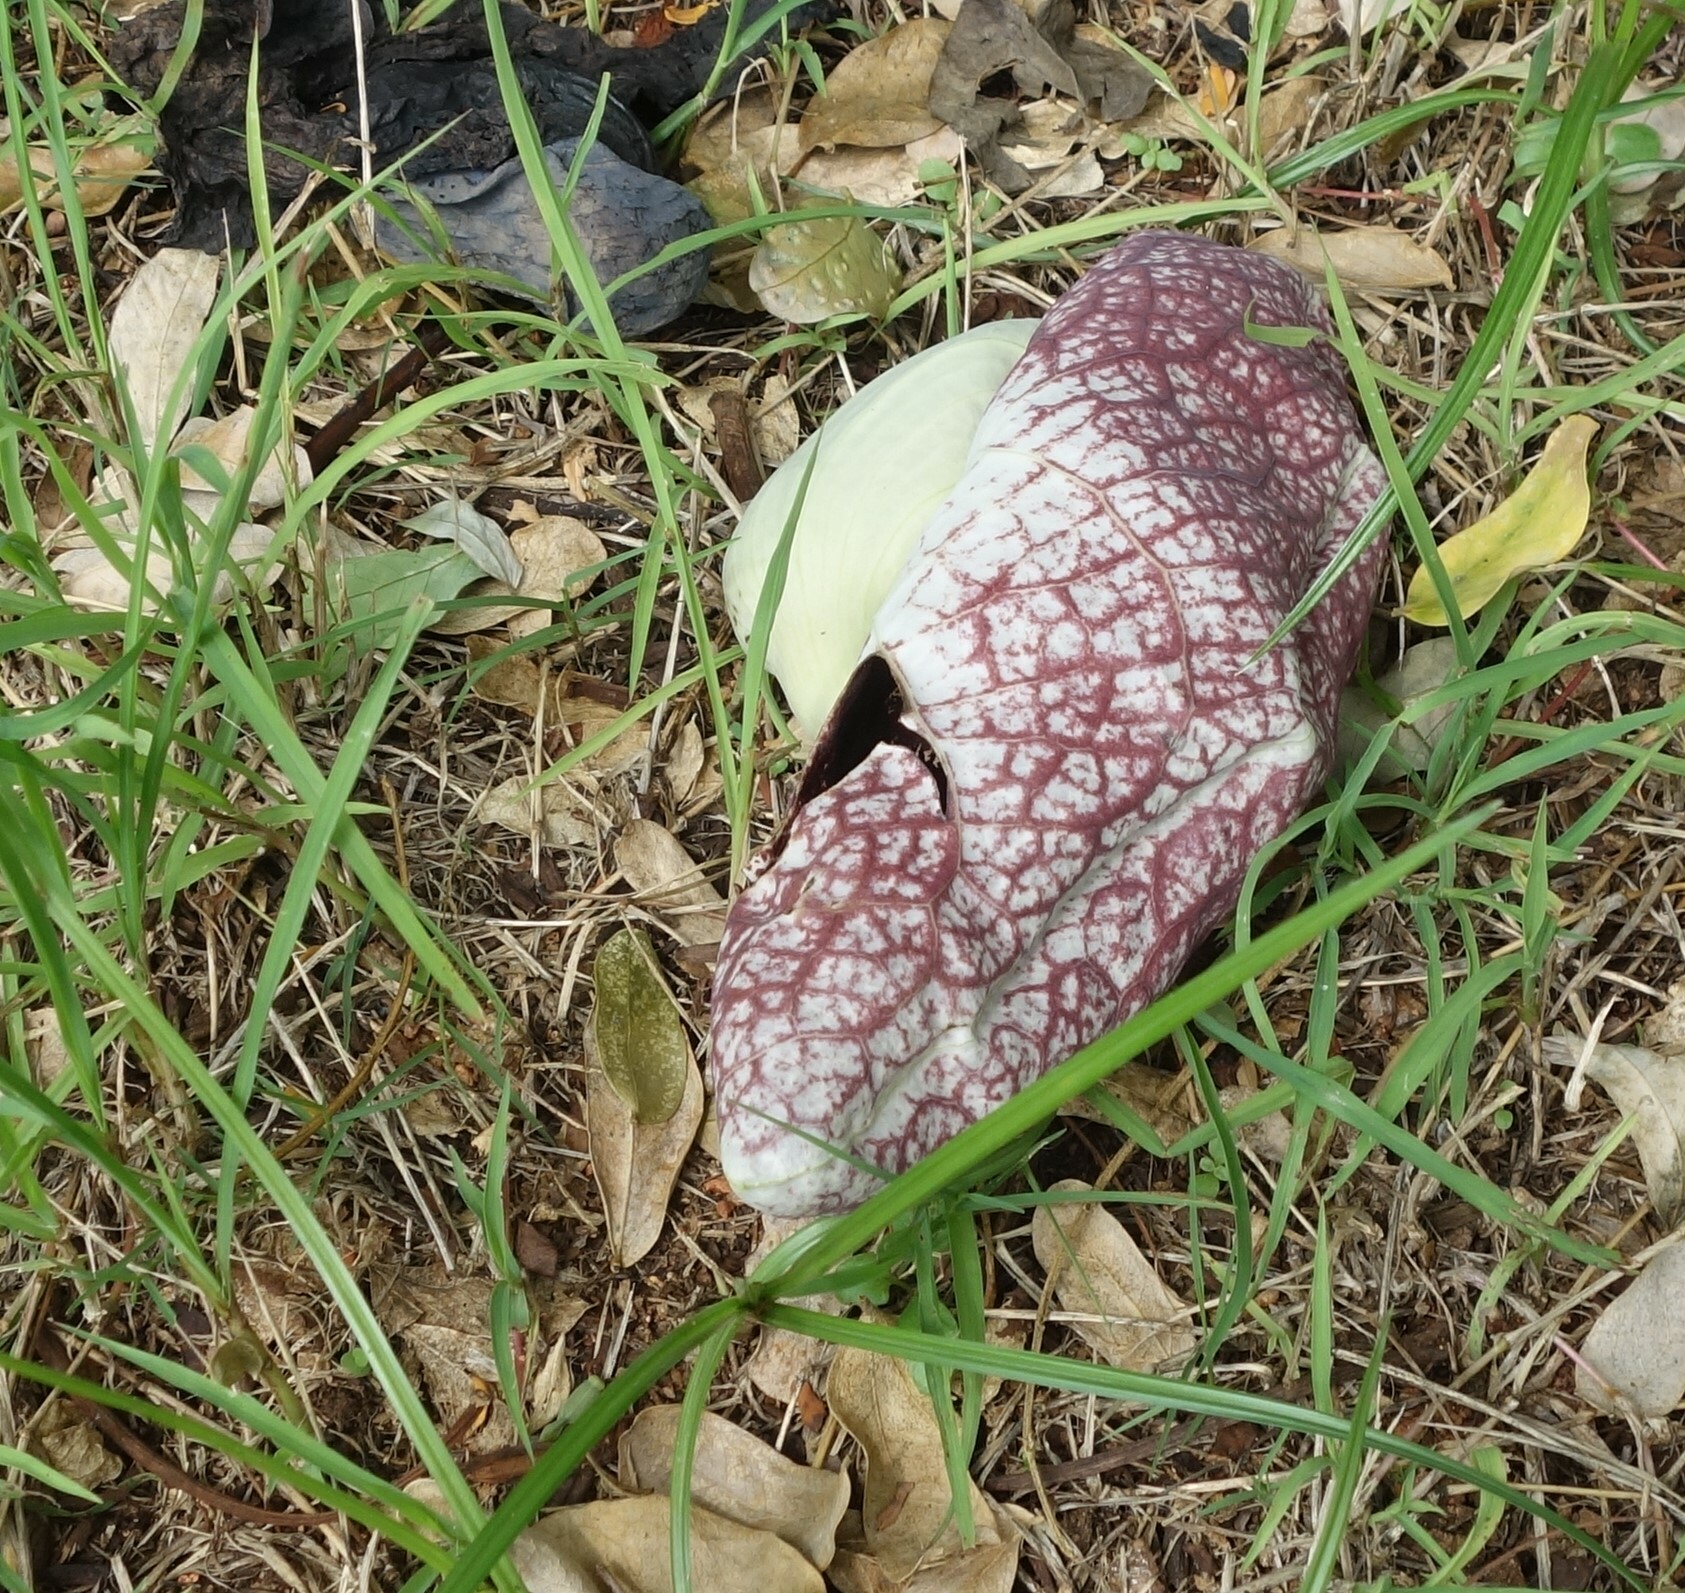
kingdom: Plantae
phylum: Tracheophyta
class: Magnoliopsida
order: Piperales
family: Aristolochiaceae
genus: Aristolochia
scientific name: Aristolochia littoralis
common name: Duck
